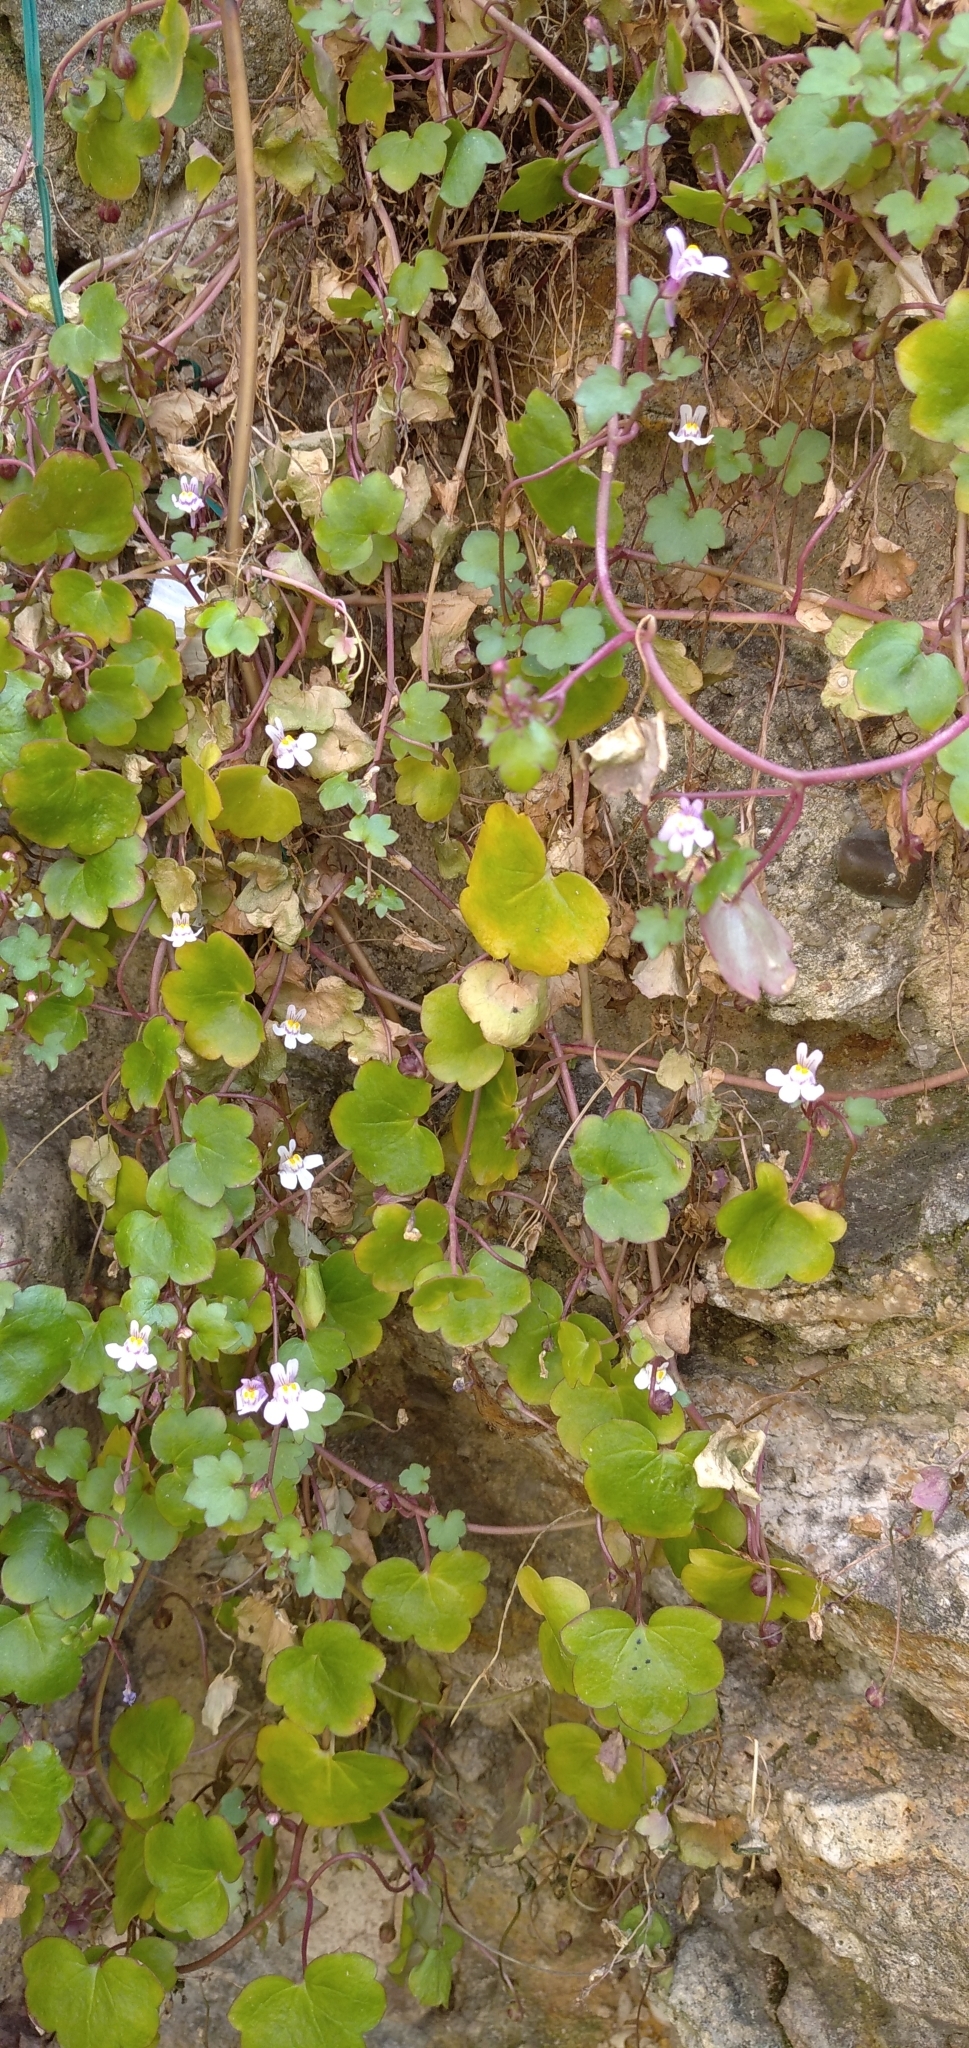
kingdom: Plantae
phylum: Tracheophyta
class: Magnoliopsida
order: Lamiales
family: Plantaginaceae
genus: Cymbalaria
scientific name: Cymbalaria muralis
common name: Ivy-leaved toadflax
